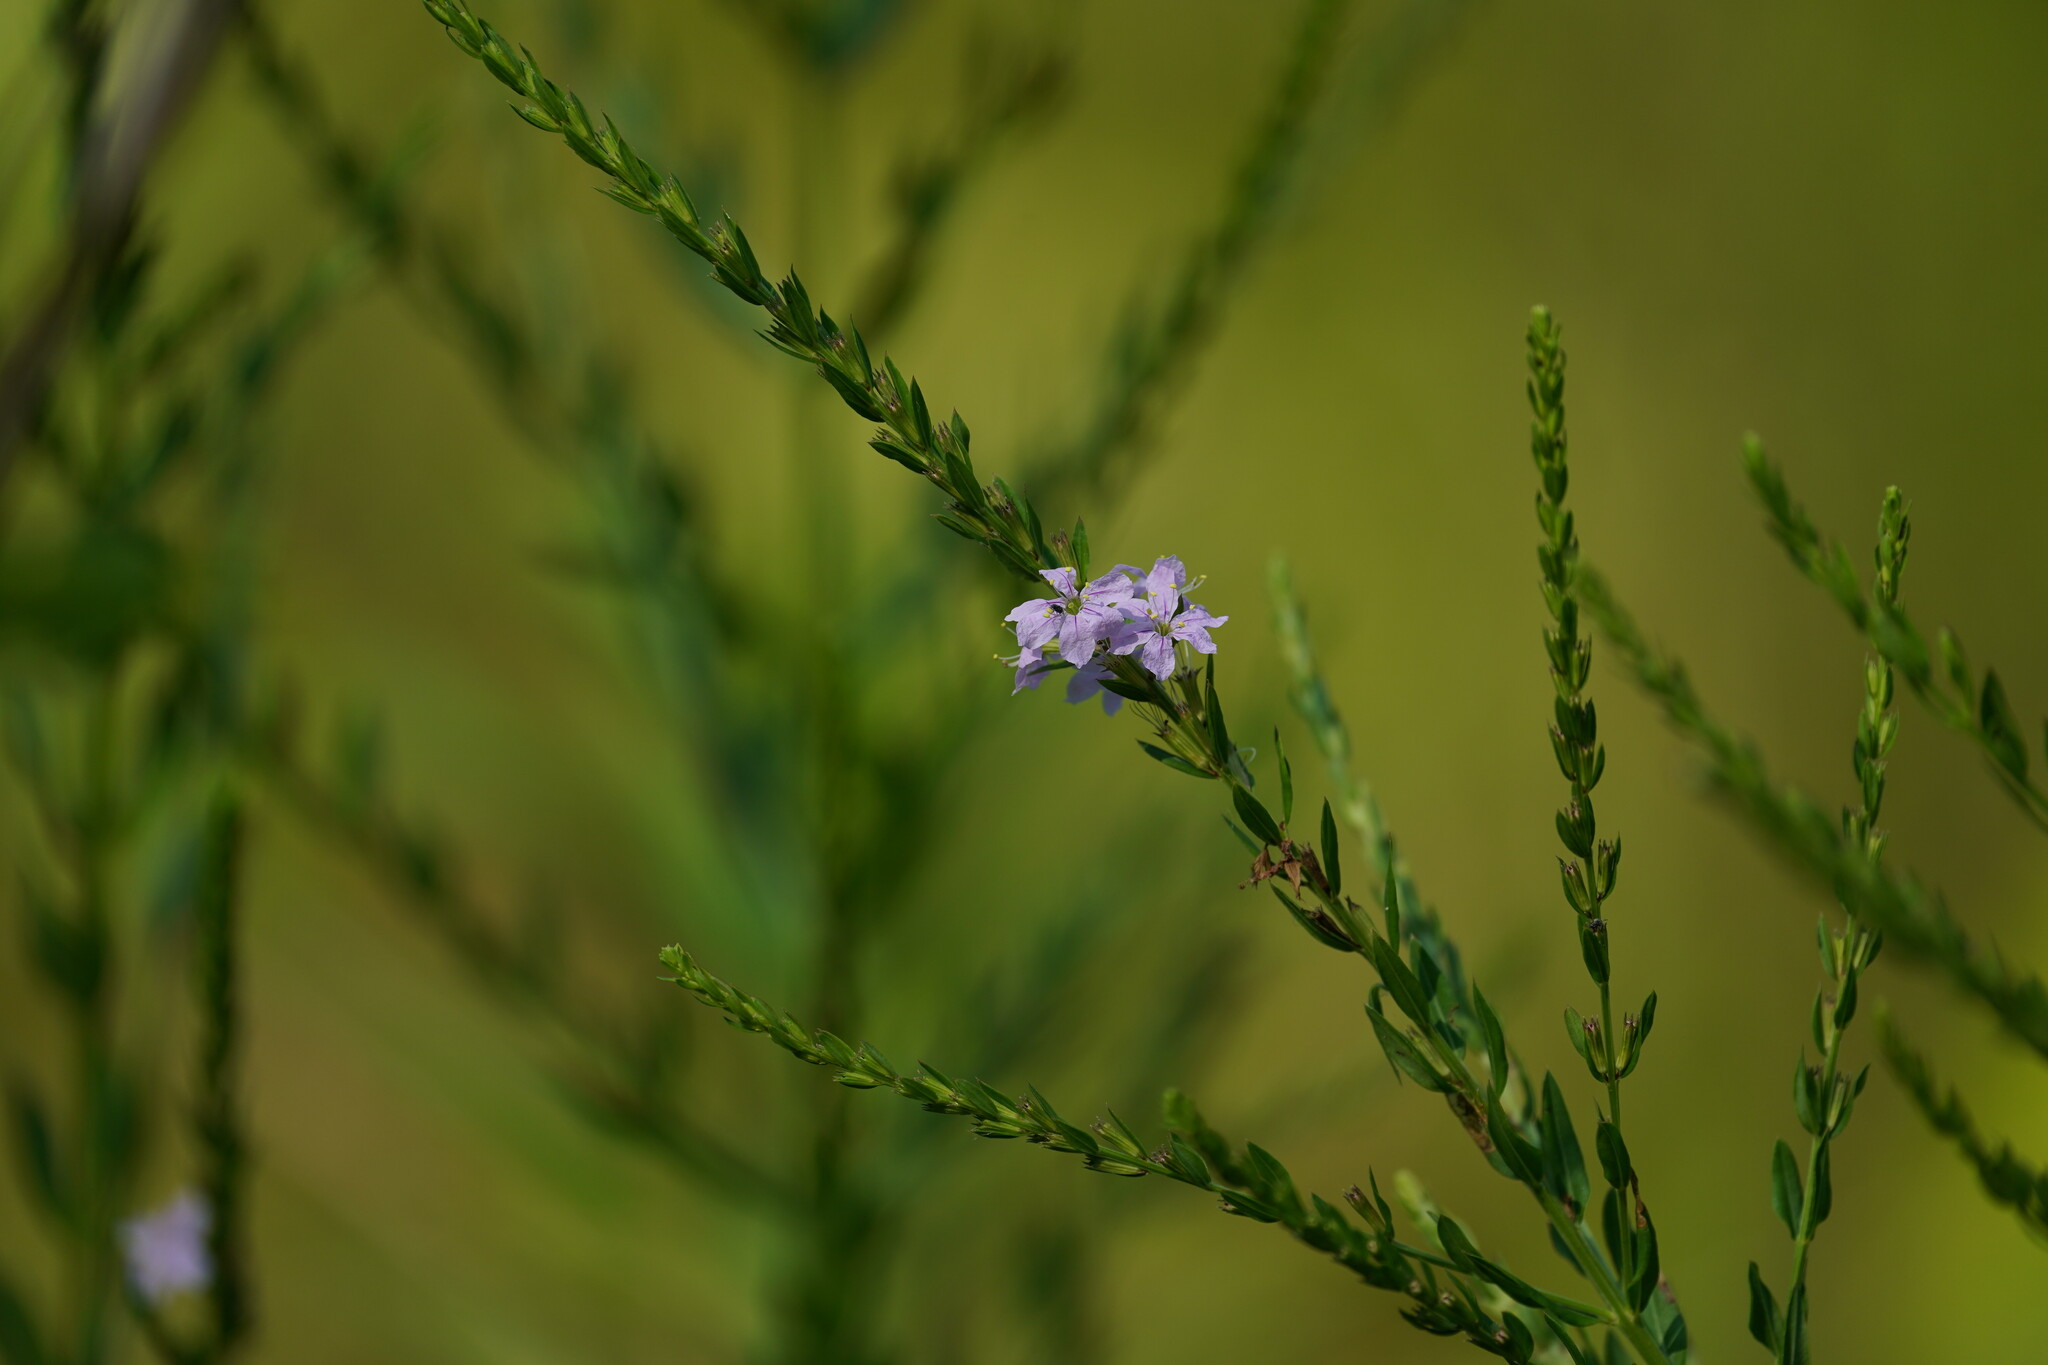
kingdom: Plantae
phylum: Tracheophyta
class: Magnoliopsida
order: Myrtales
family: Lythraceae
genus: Lythrum
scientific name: Lythrum alatum
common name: Winged loosestrife
